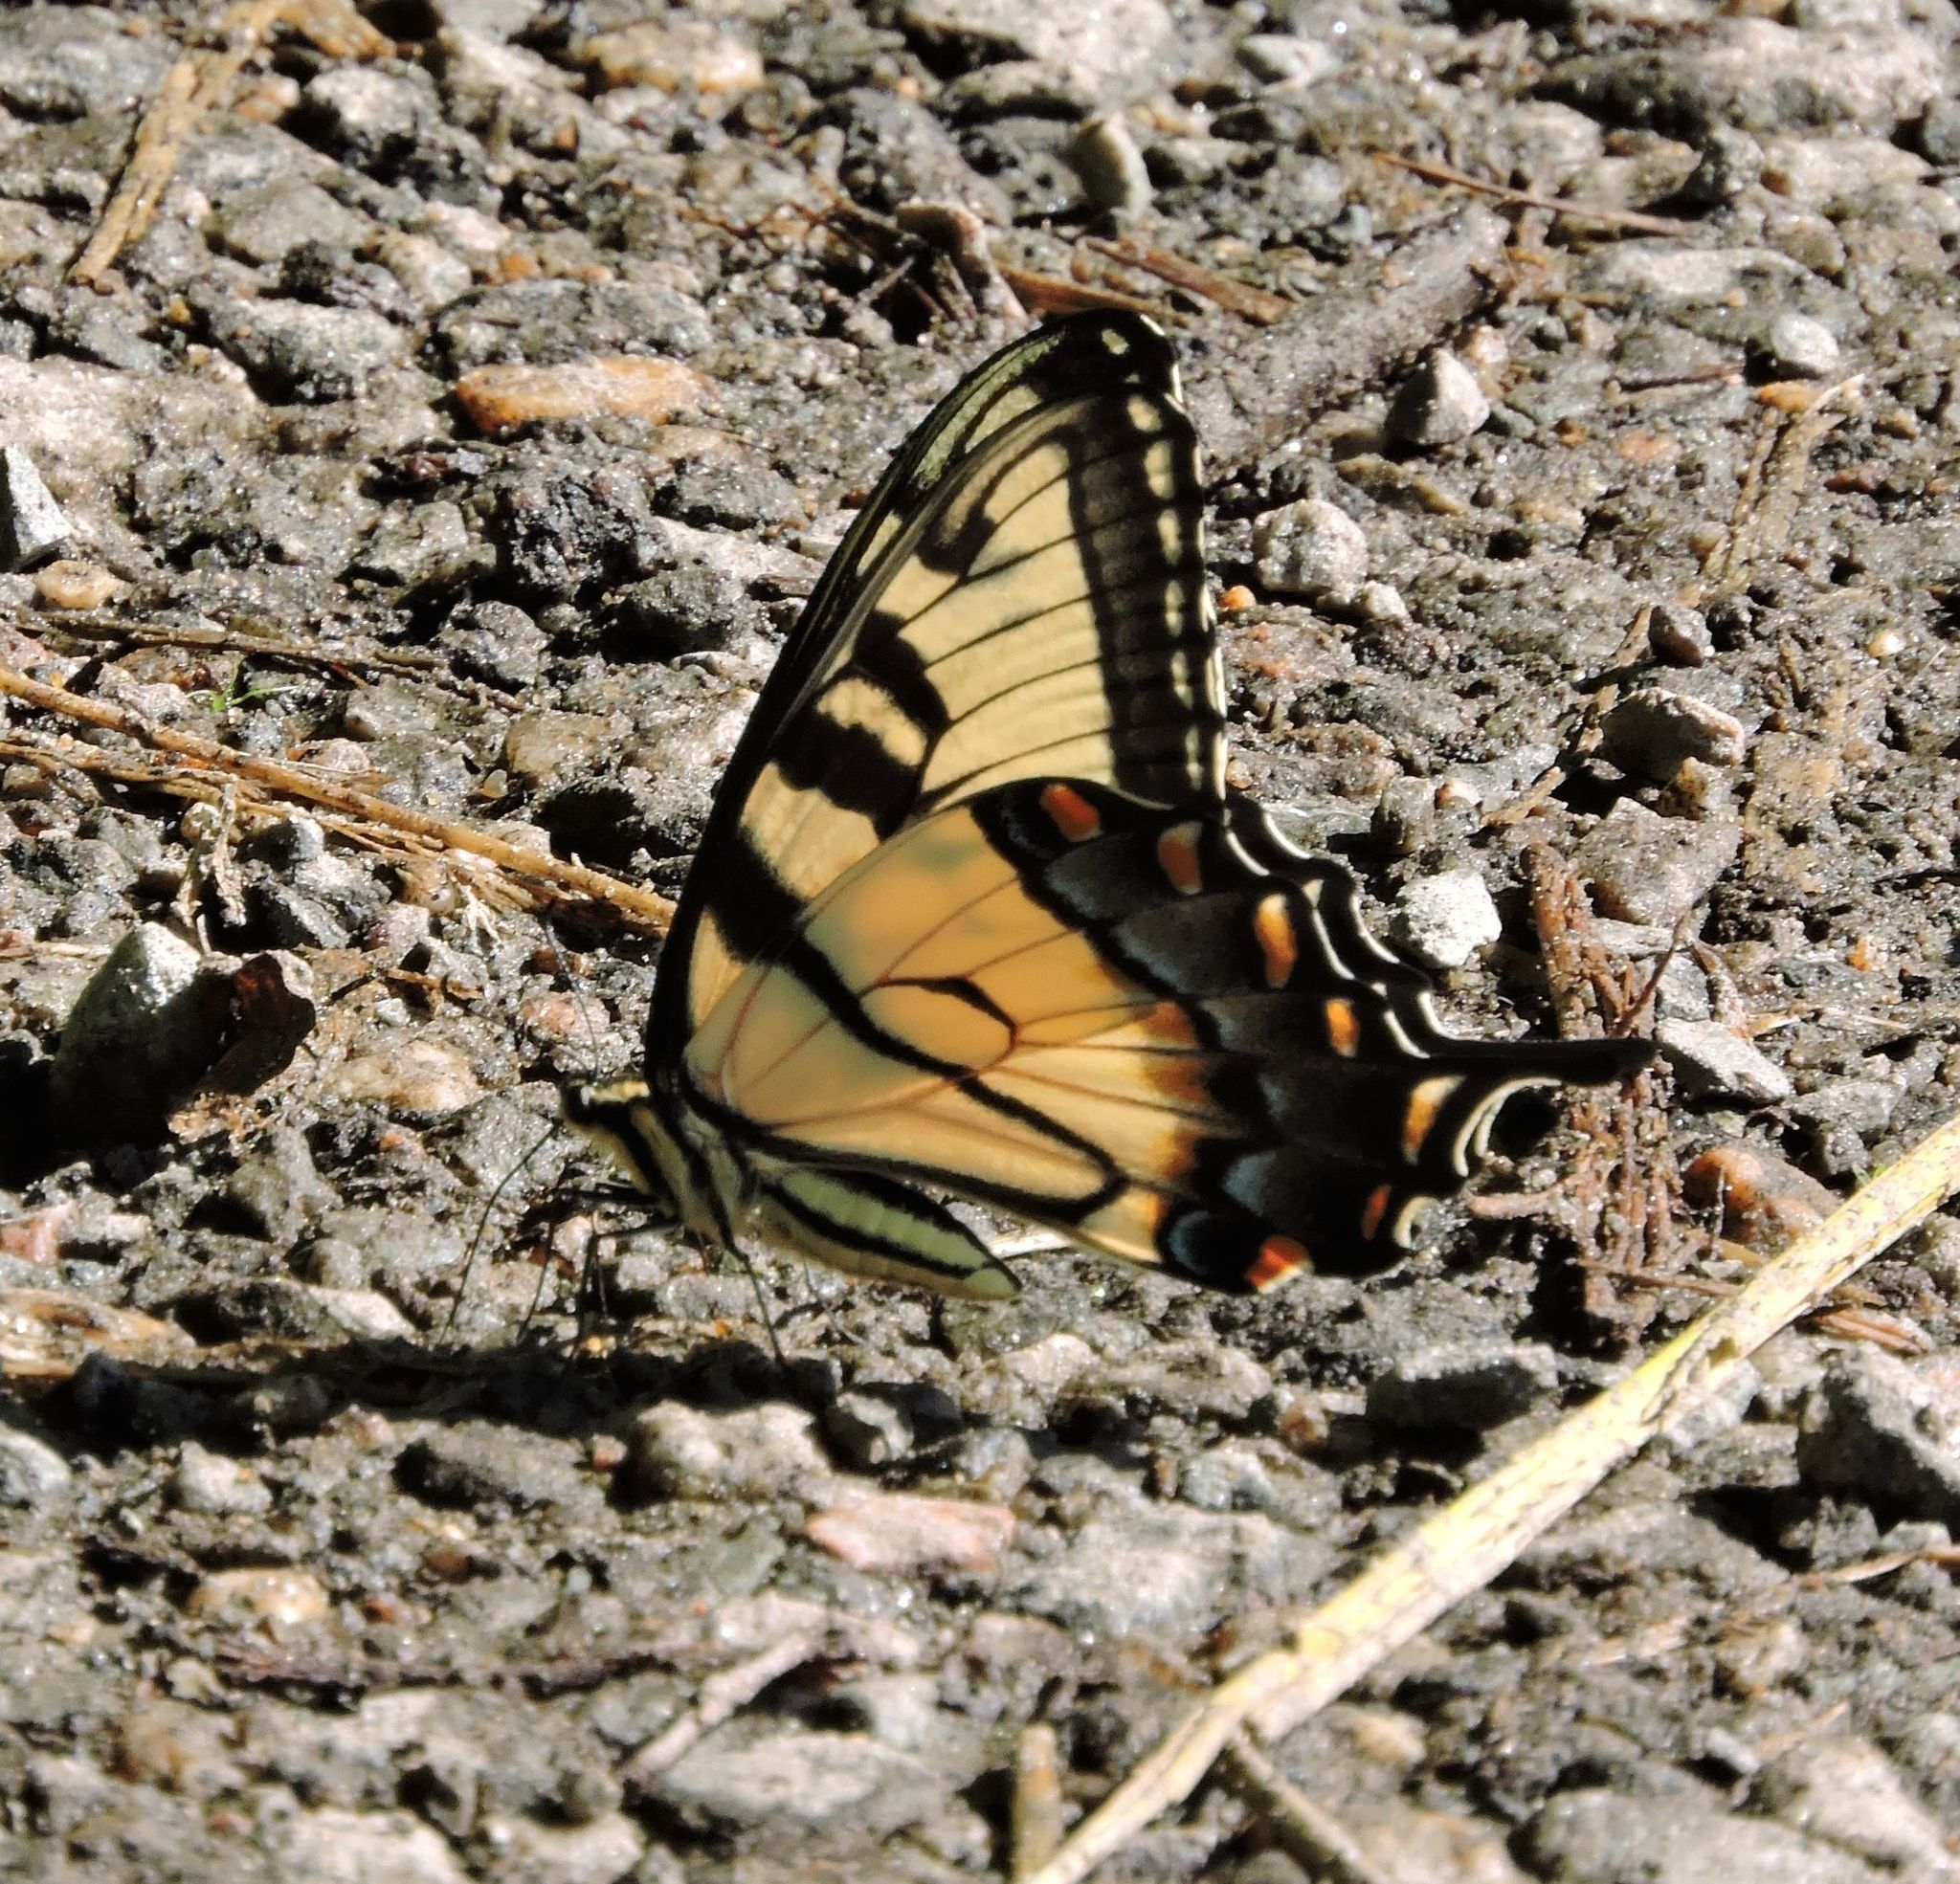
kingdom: Animalia
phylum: Arthropoda
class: Insecta
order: Lepidoptera
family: Papilionidae
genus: Papilio
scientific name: Papilio glaucus
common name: Tiger swallowtail
